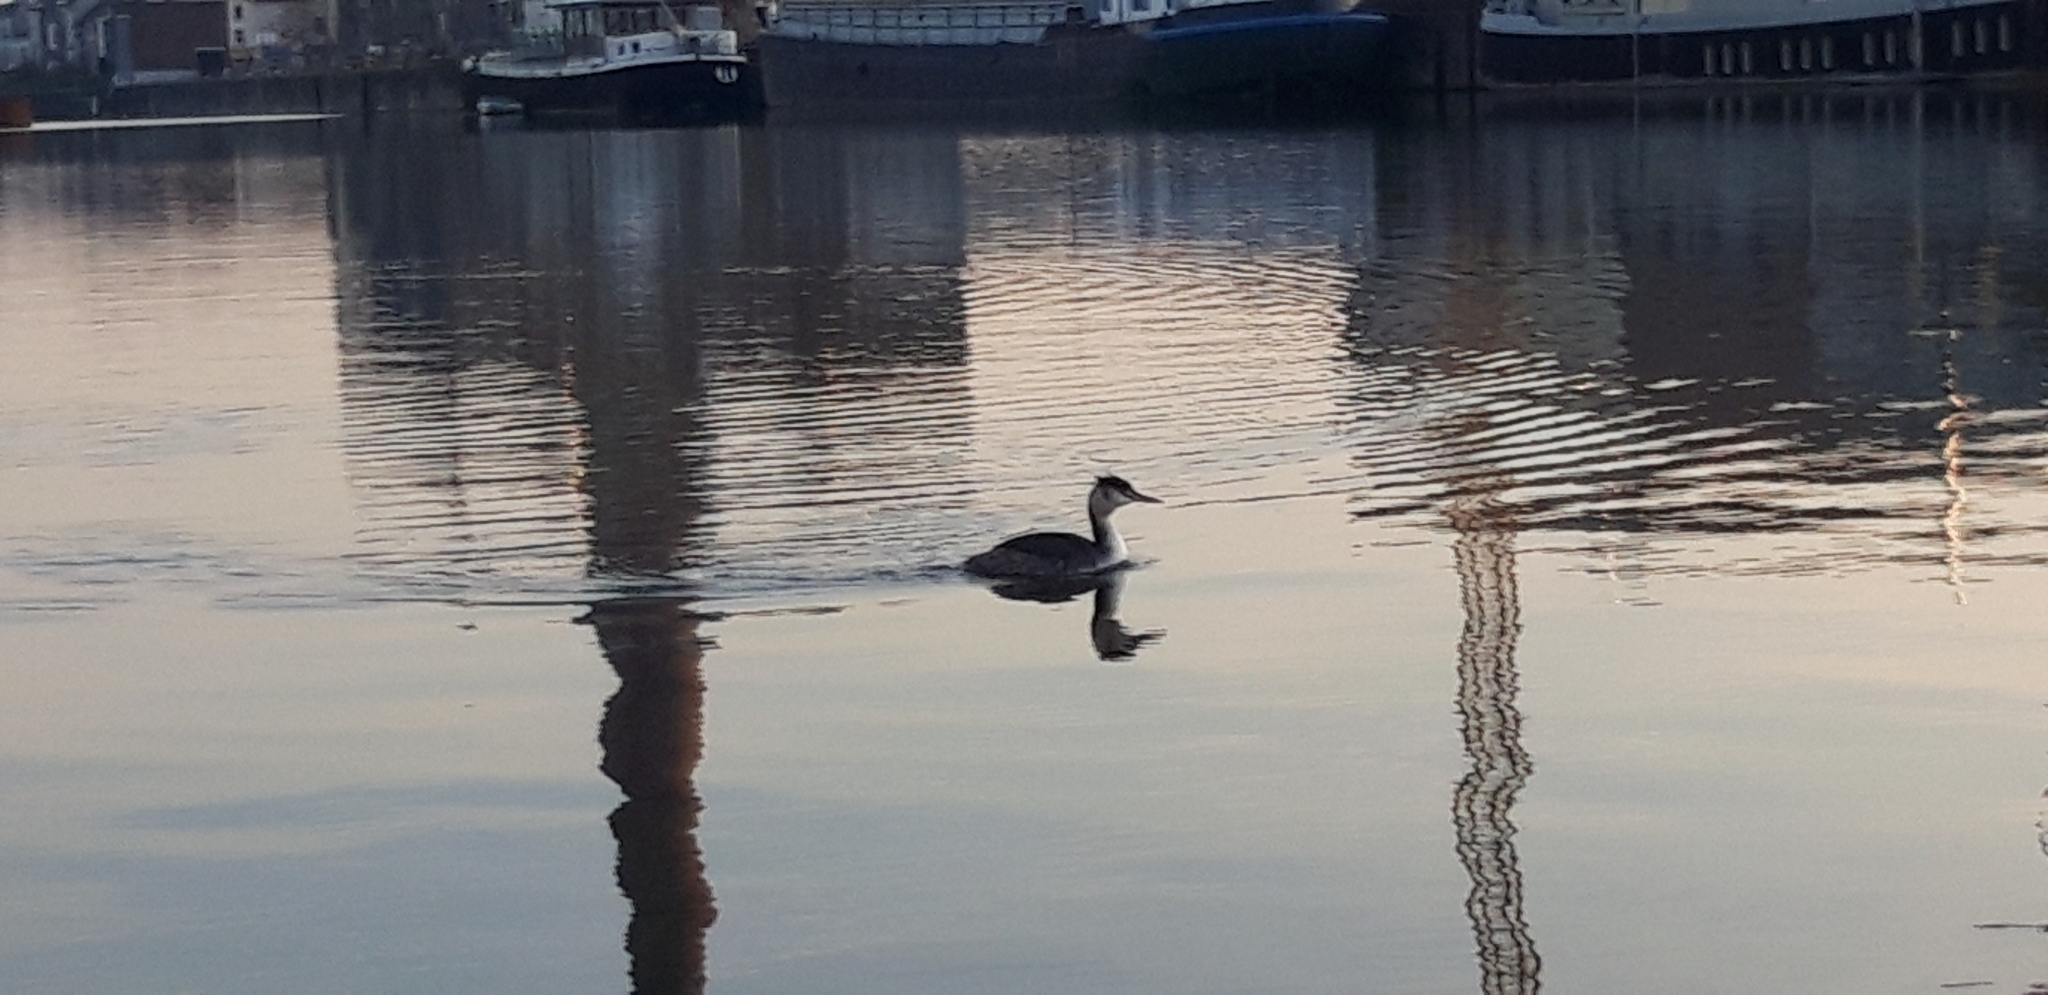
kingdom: Animalia
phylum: Chordata
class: Aves
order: Podicipediformes
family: Podicipedidae
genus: Podiceps
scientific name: Podiceps cristatus
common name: Great crested grebe
